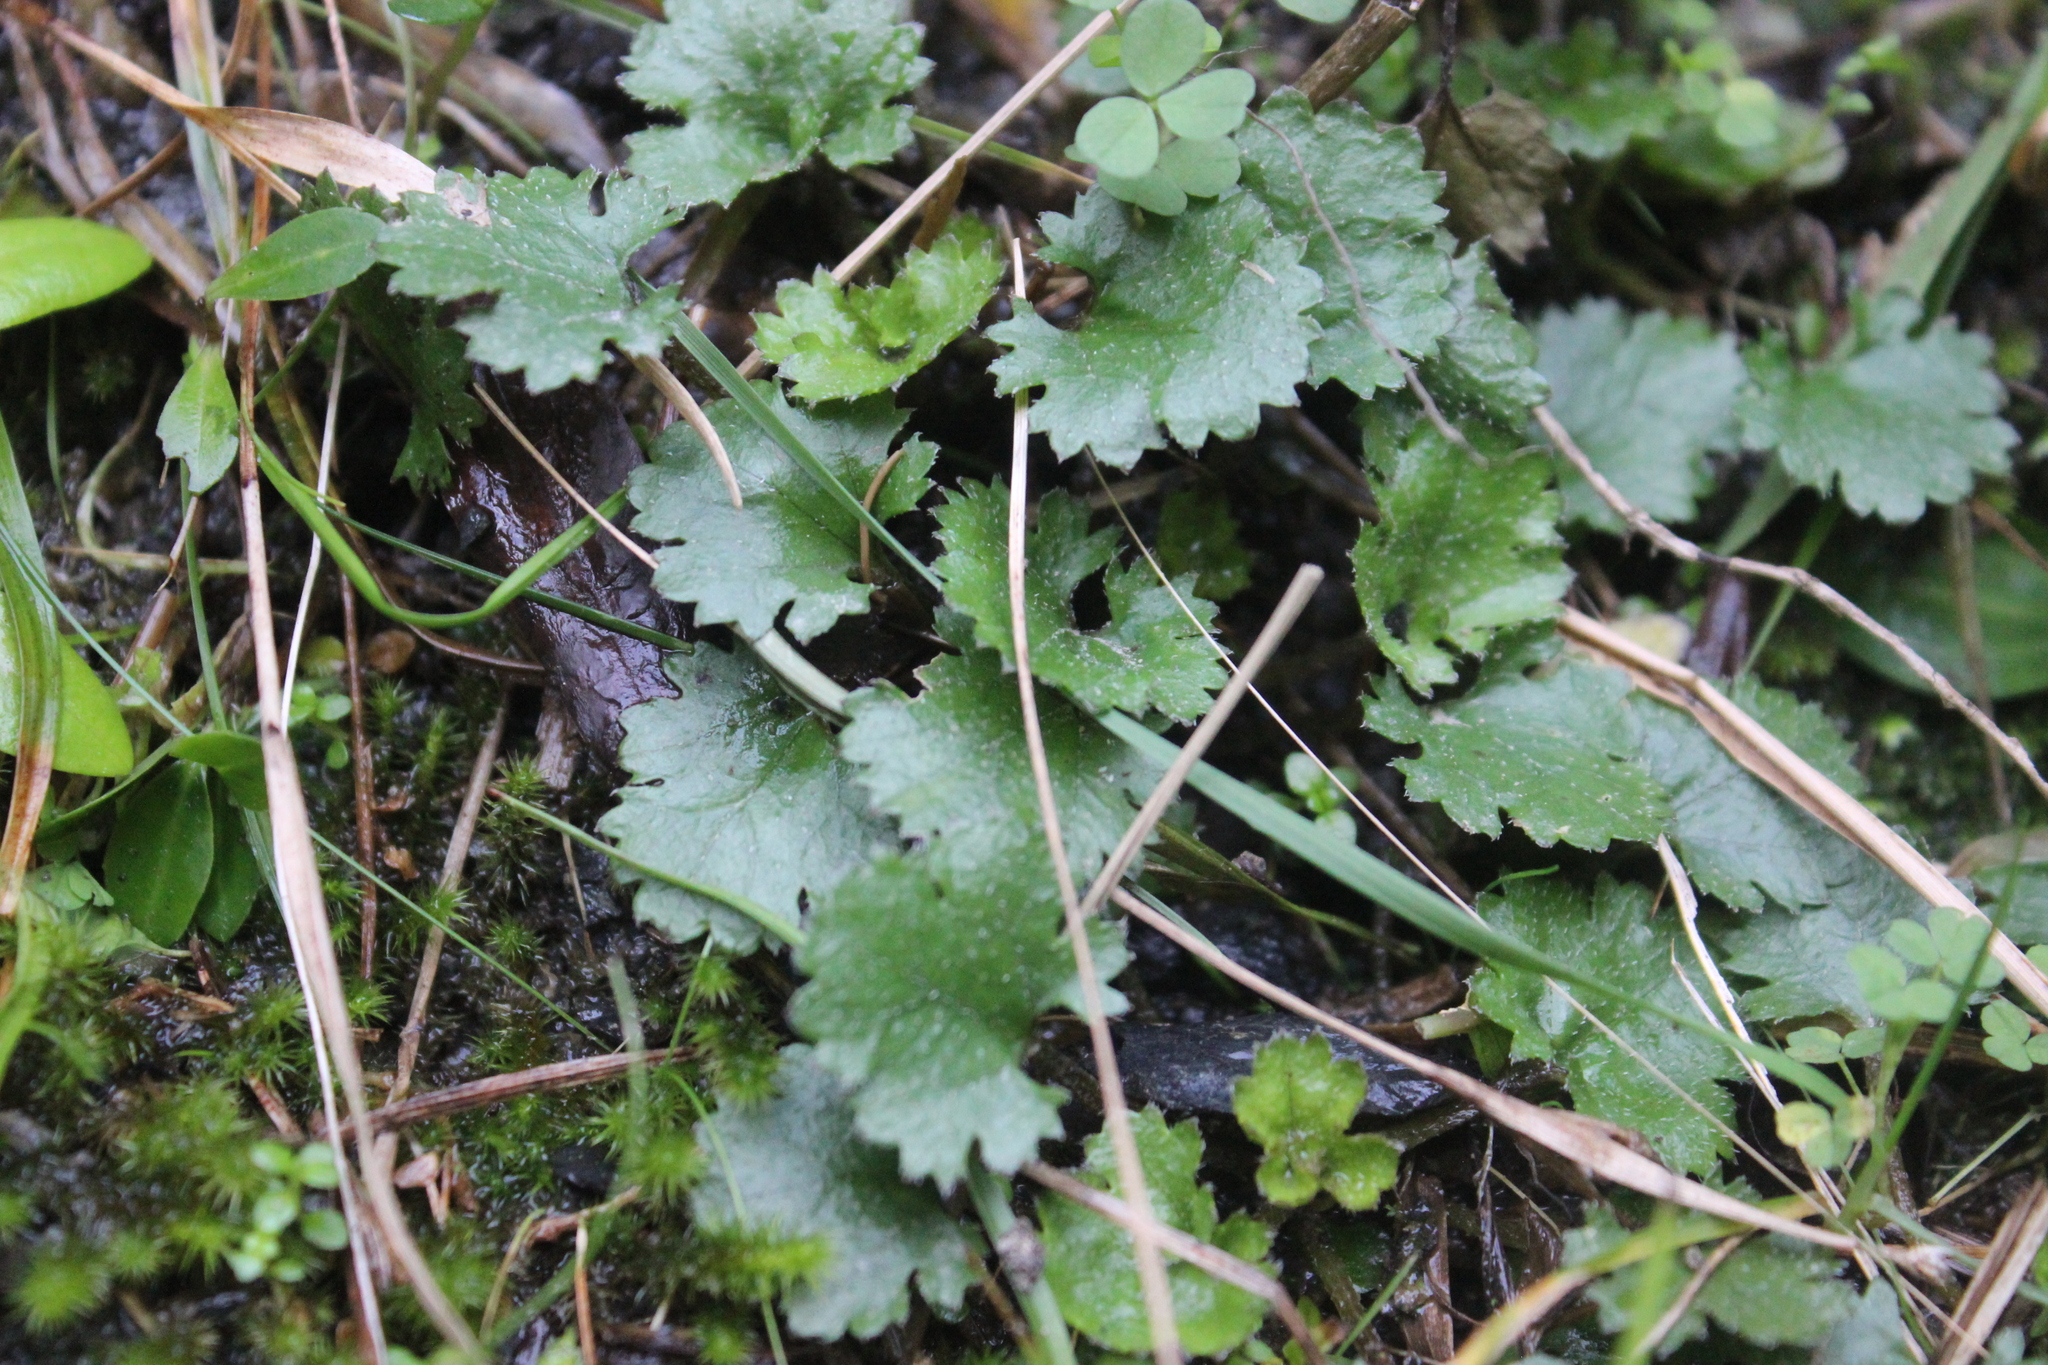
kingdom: Plantae
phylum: Tracheophyta
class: Magnoliopsida
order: Gunnerales
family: Gunneraceae
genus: Gunnera
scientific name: Gunnera monoica
